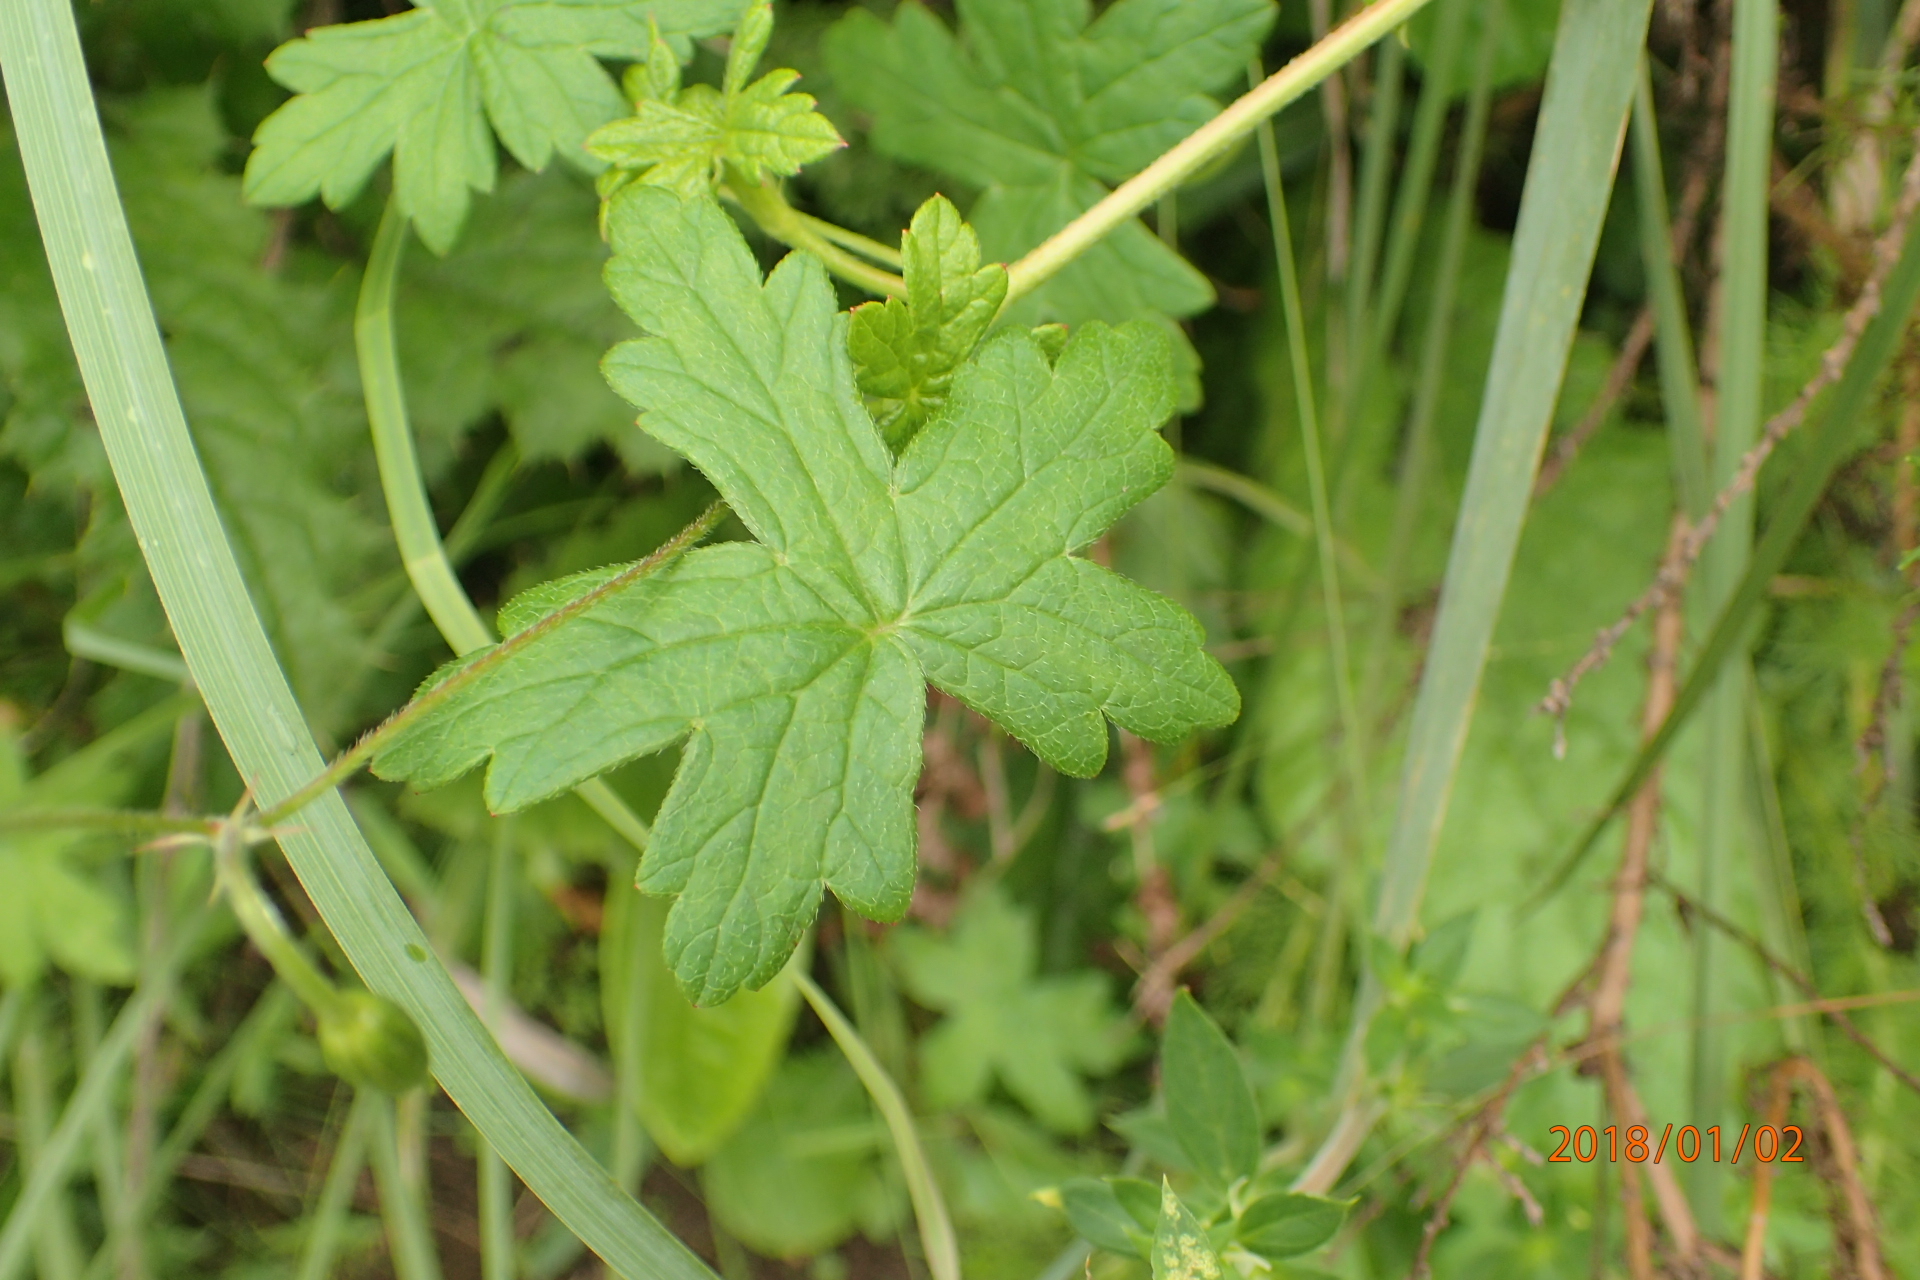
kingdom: Plantae
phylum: Tracheophyta
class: Magnoliopsida
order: Geraniales
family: Geraniaceae
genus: Geranium
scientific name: Geranium flanaganii
